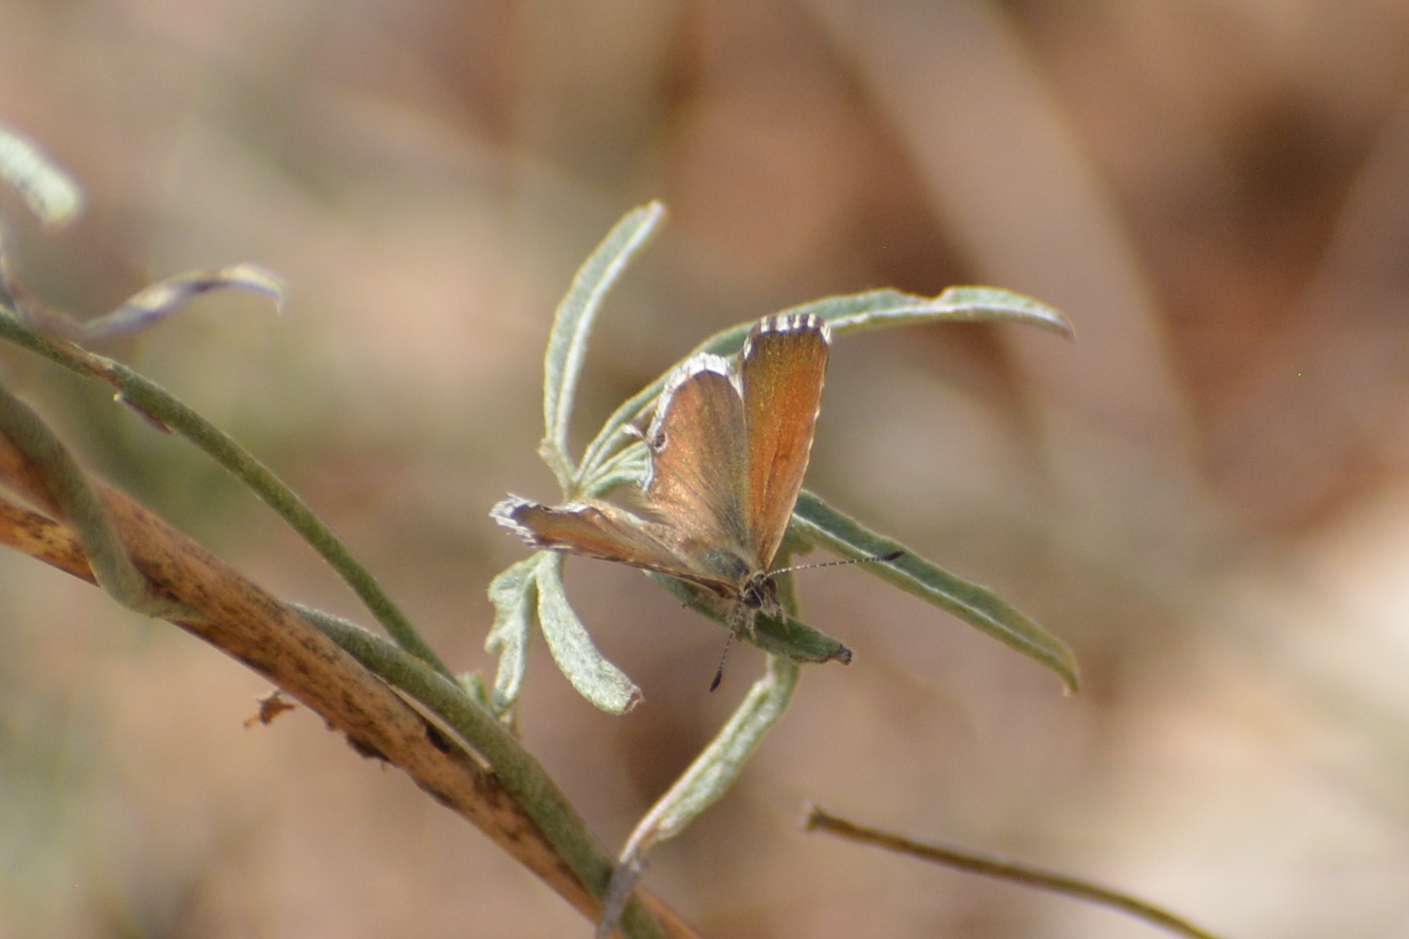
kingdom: Animalia
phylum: Arthropoda
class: Insecta
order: Lepidoptera
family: Lycaenidae
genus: Cacyreus
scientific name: Cacyreus marshalli
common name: Geranium bronze
